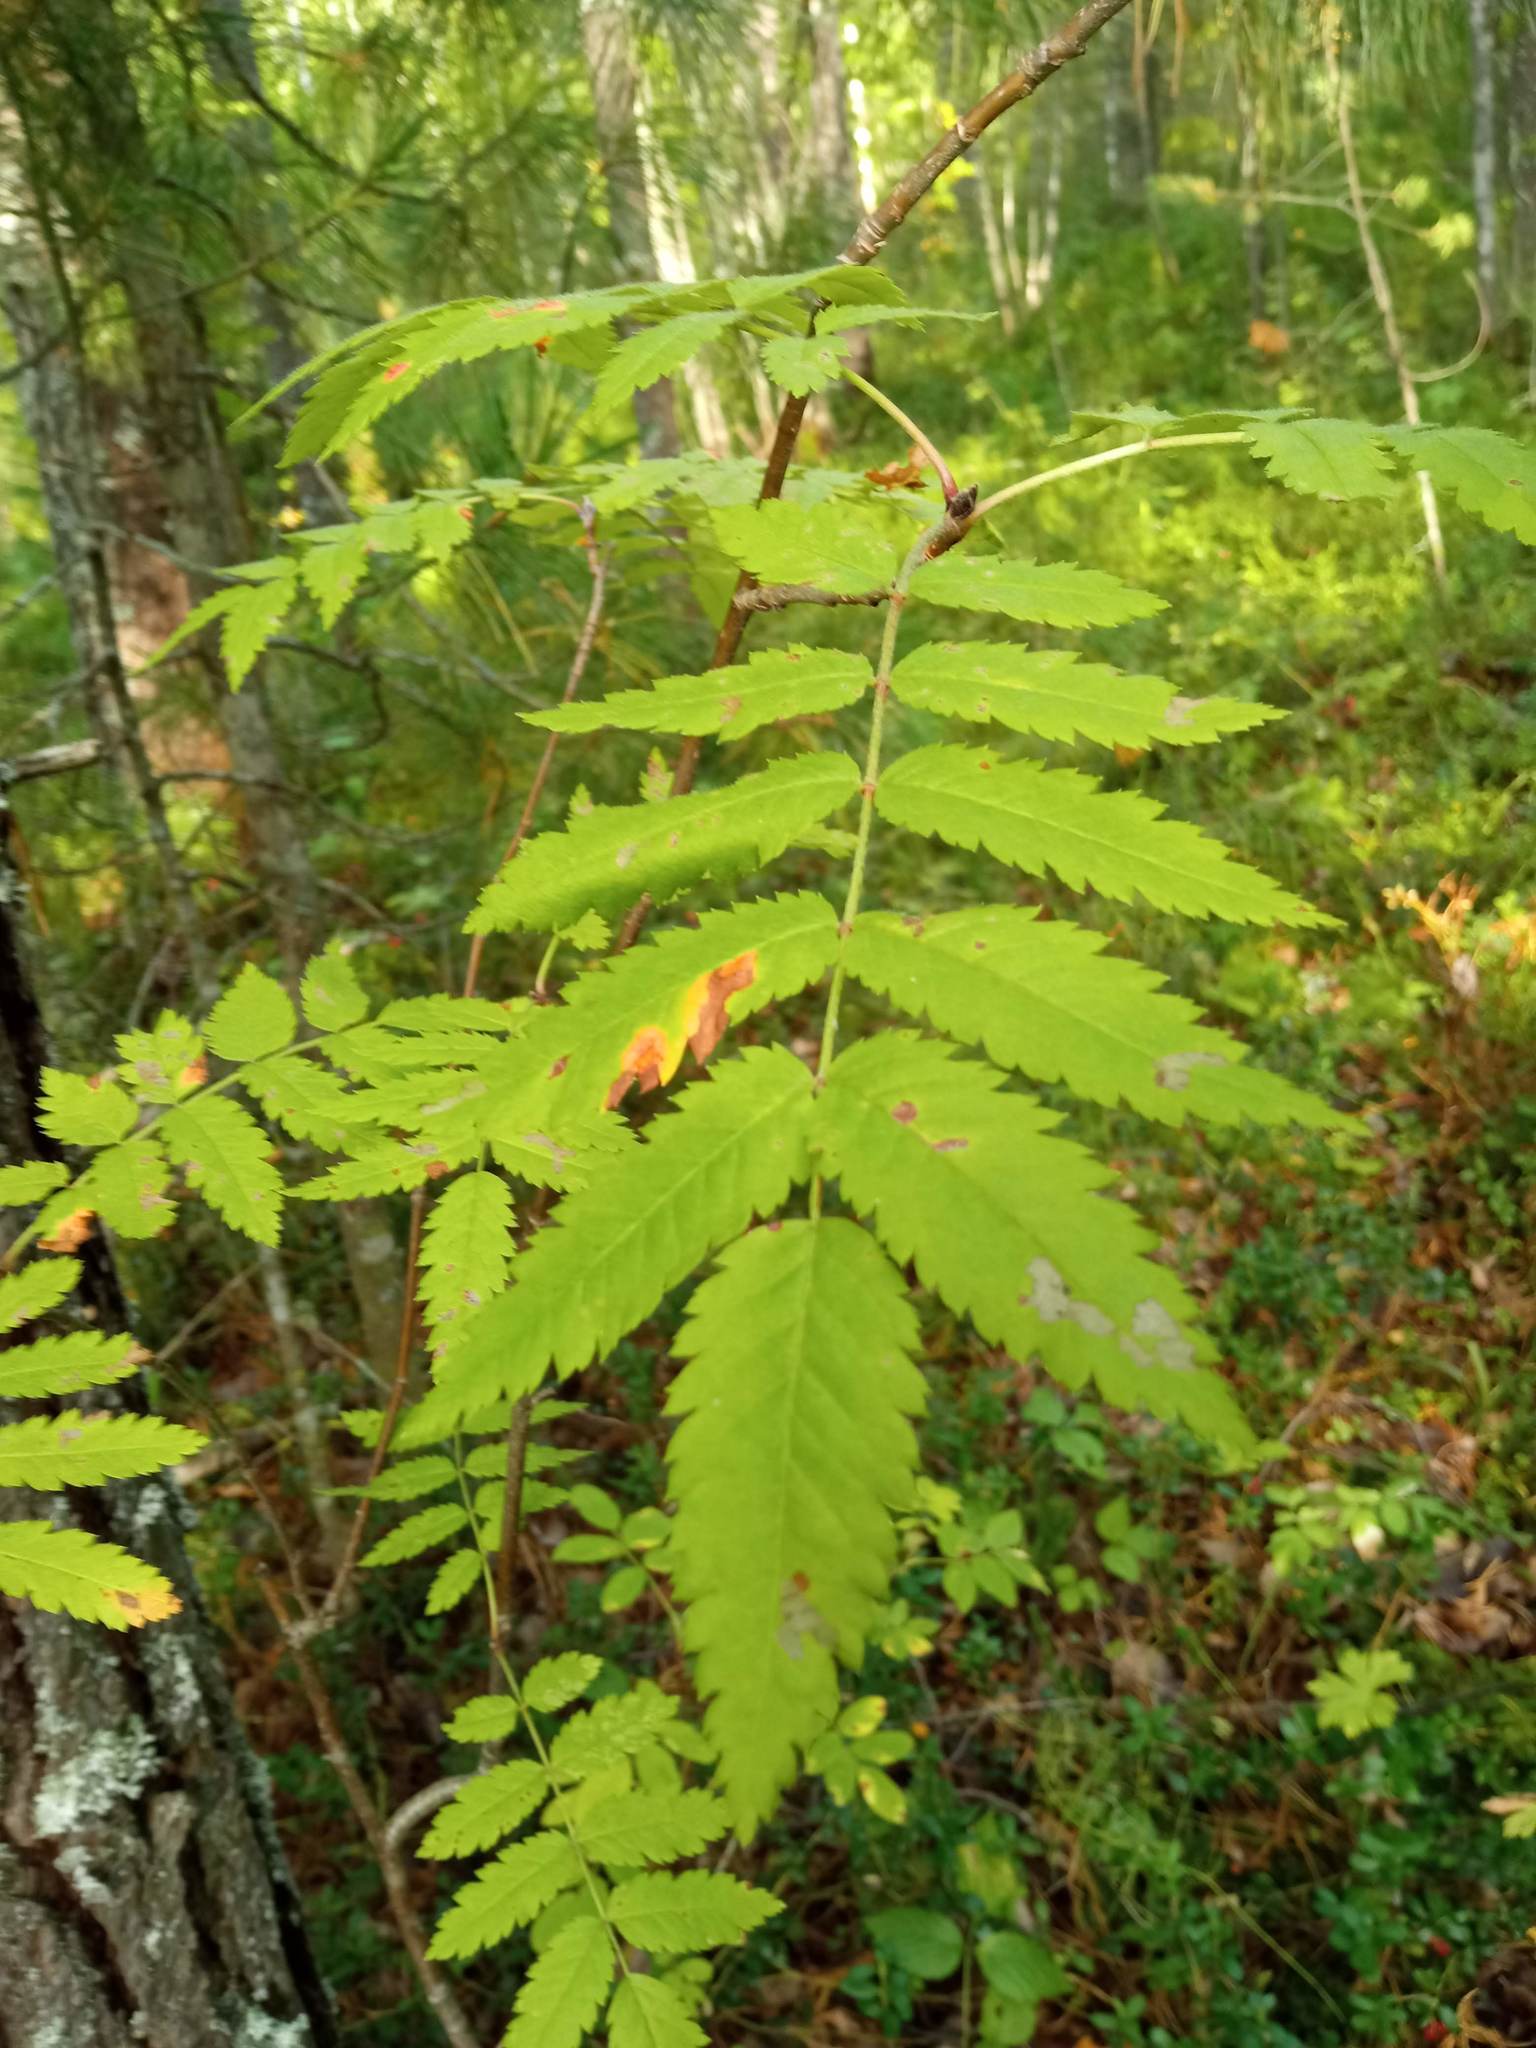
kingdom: Plantae
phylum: Tracheophyta
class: Magnoliopsida
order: Rosales
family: Rosaceae
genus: Sorbus
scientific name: Sorbus aucuparia
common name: Rowan
